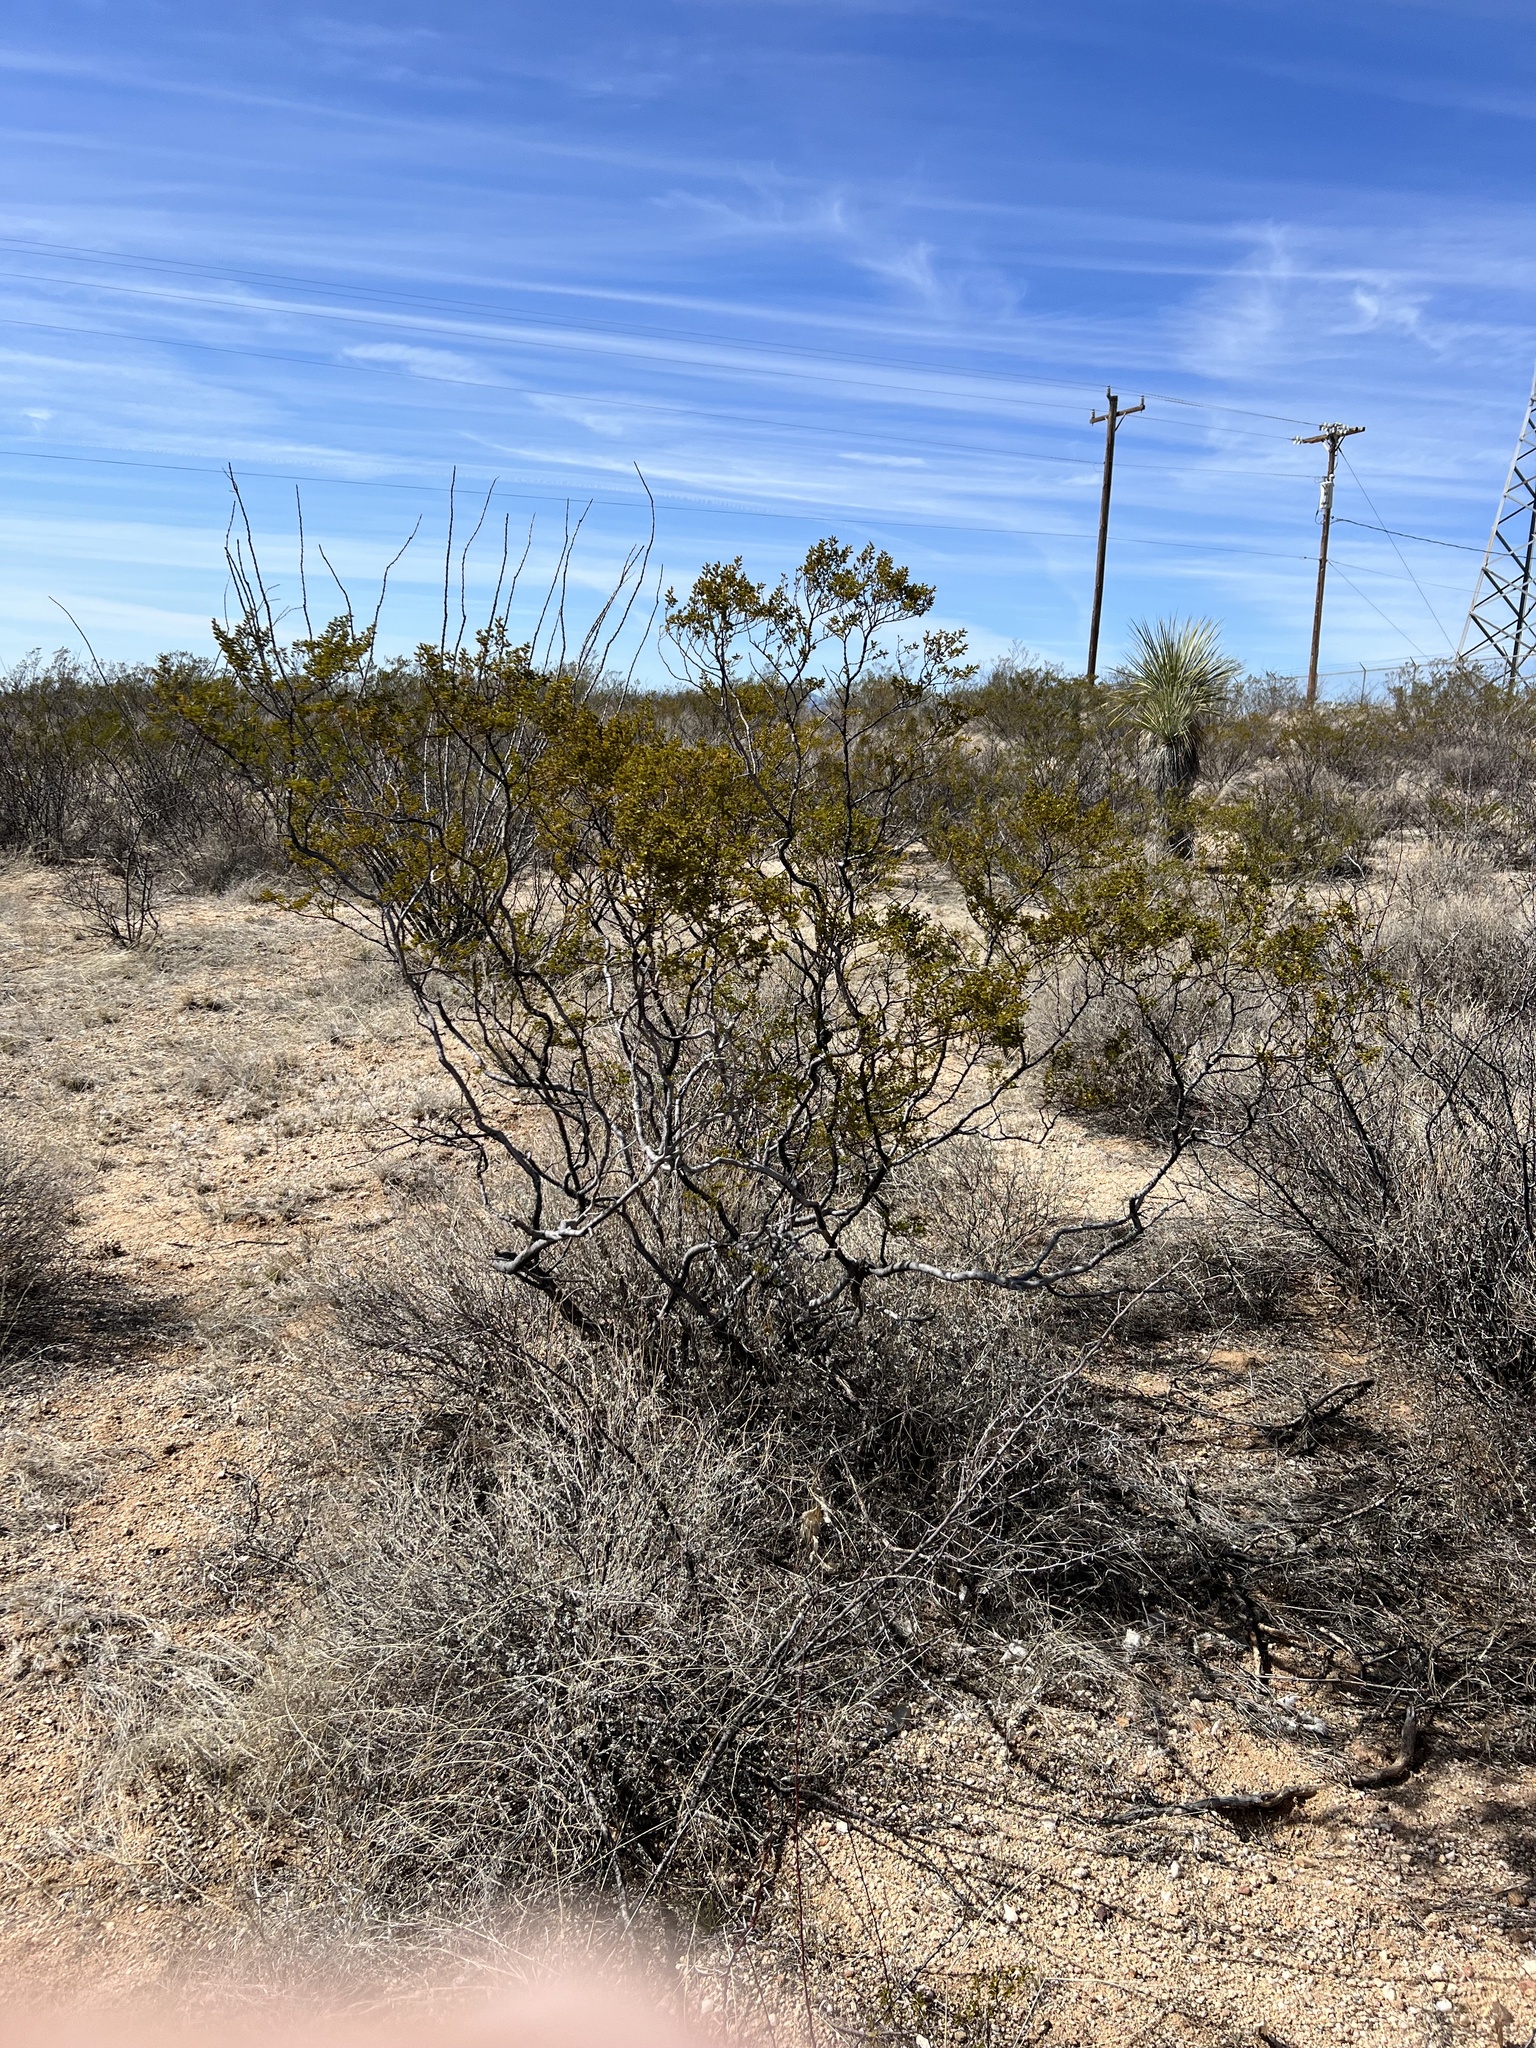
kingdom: Plantae
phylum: Tracheophyta
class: Magnoliopsida
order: Zygophyllales
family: Zygophyllaceae
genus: Larrea
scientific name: Larrea tridentata
